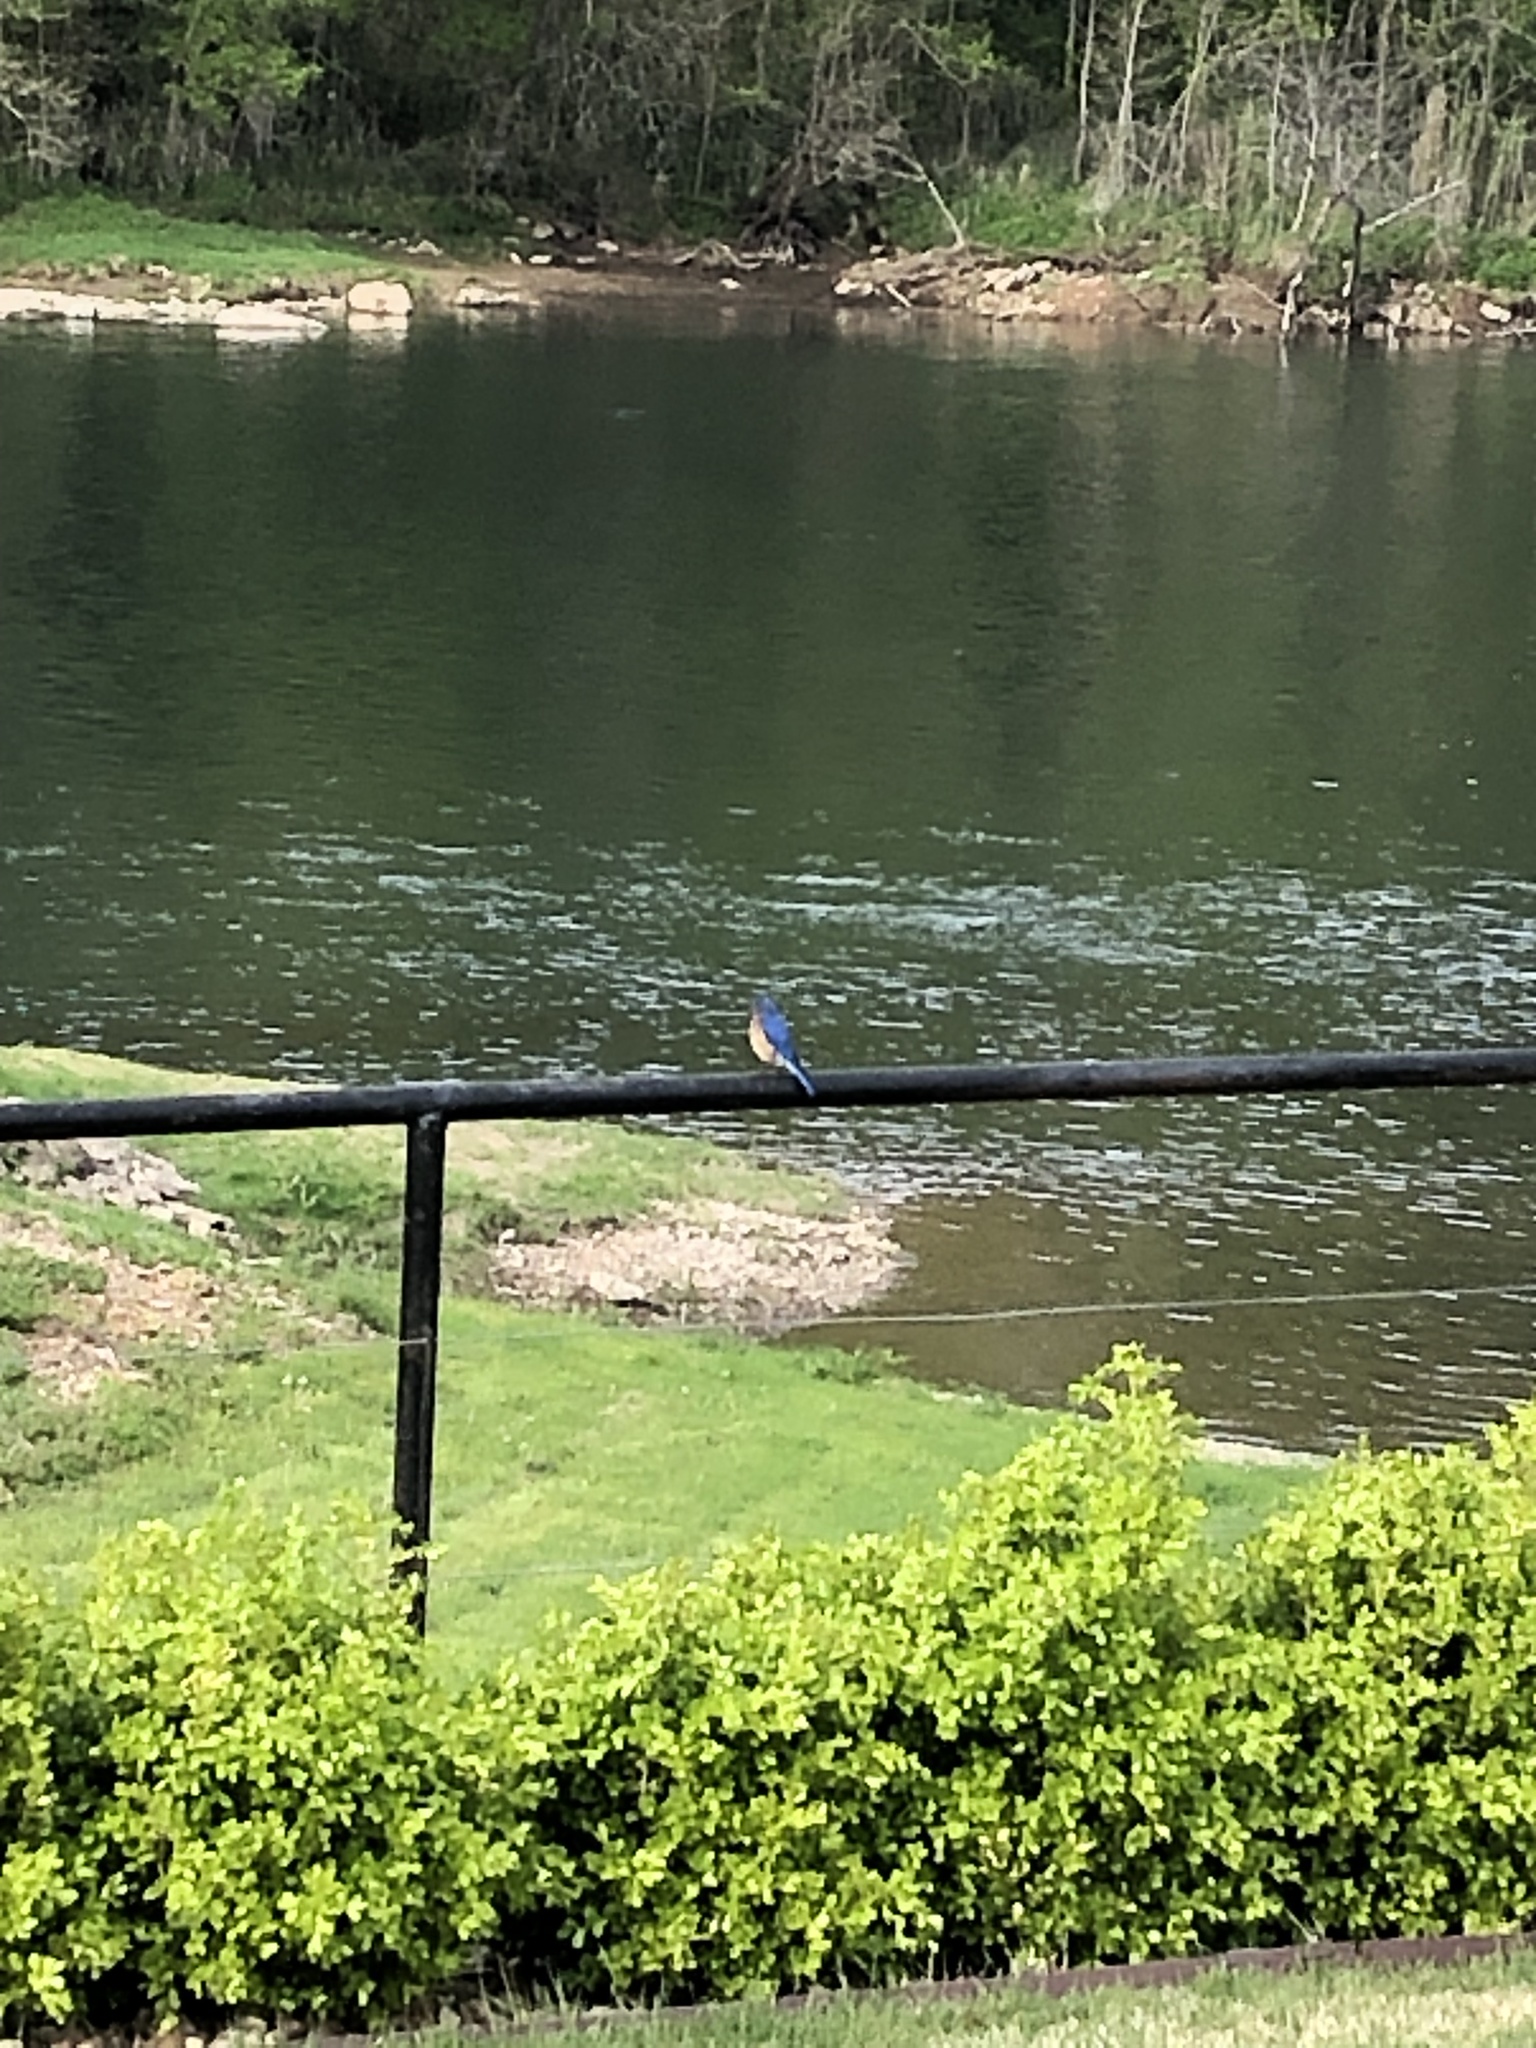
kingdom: Animalia
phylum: Chordata
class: Aves
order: Passeriformes
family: Turdidae
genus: Sialia
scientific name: Sialia sialis
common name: Eastern bluebird
